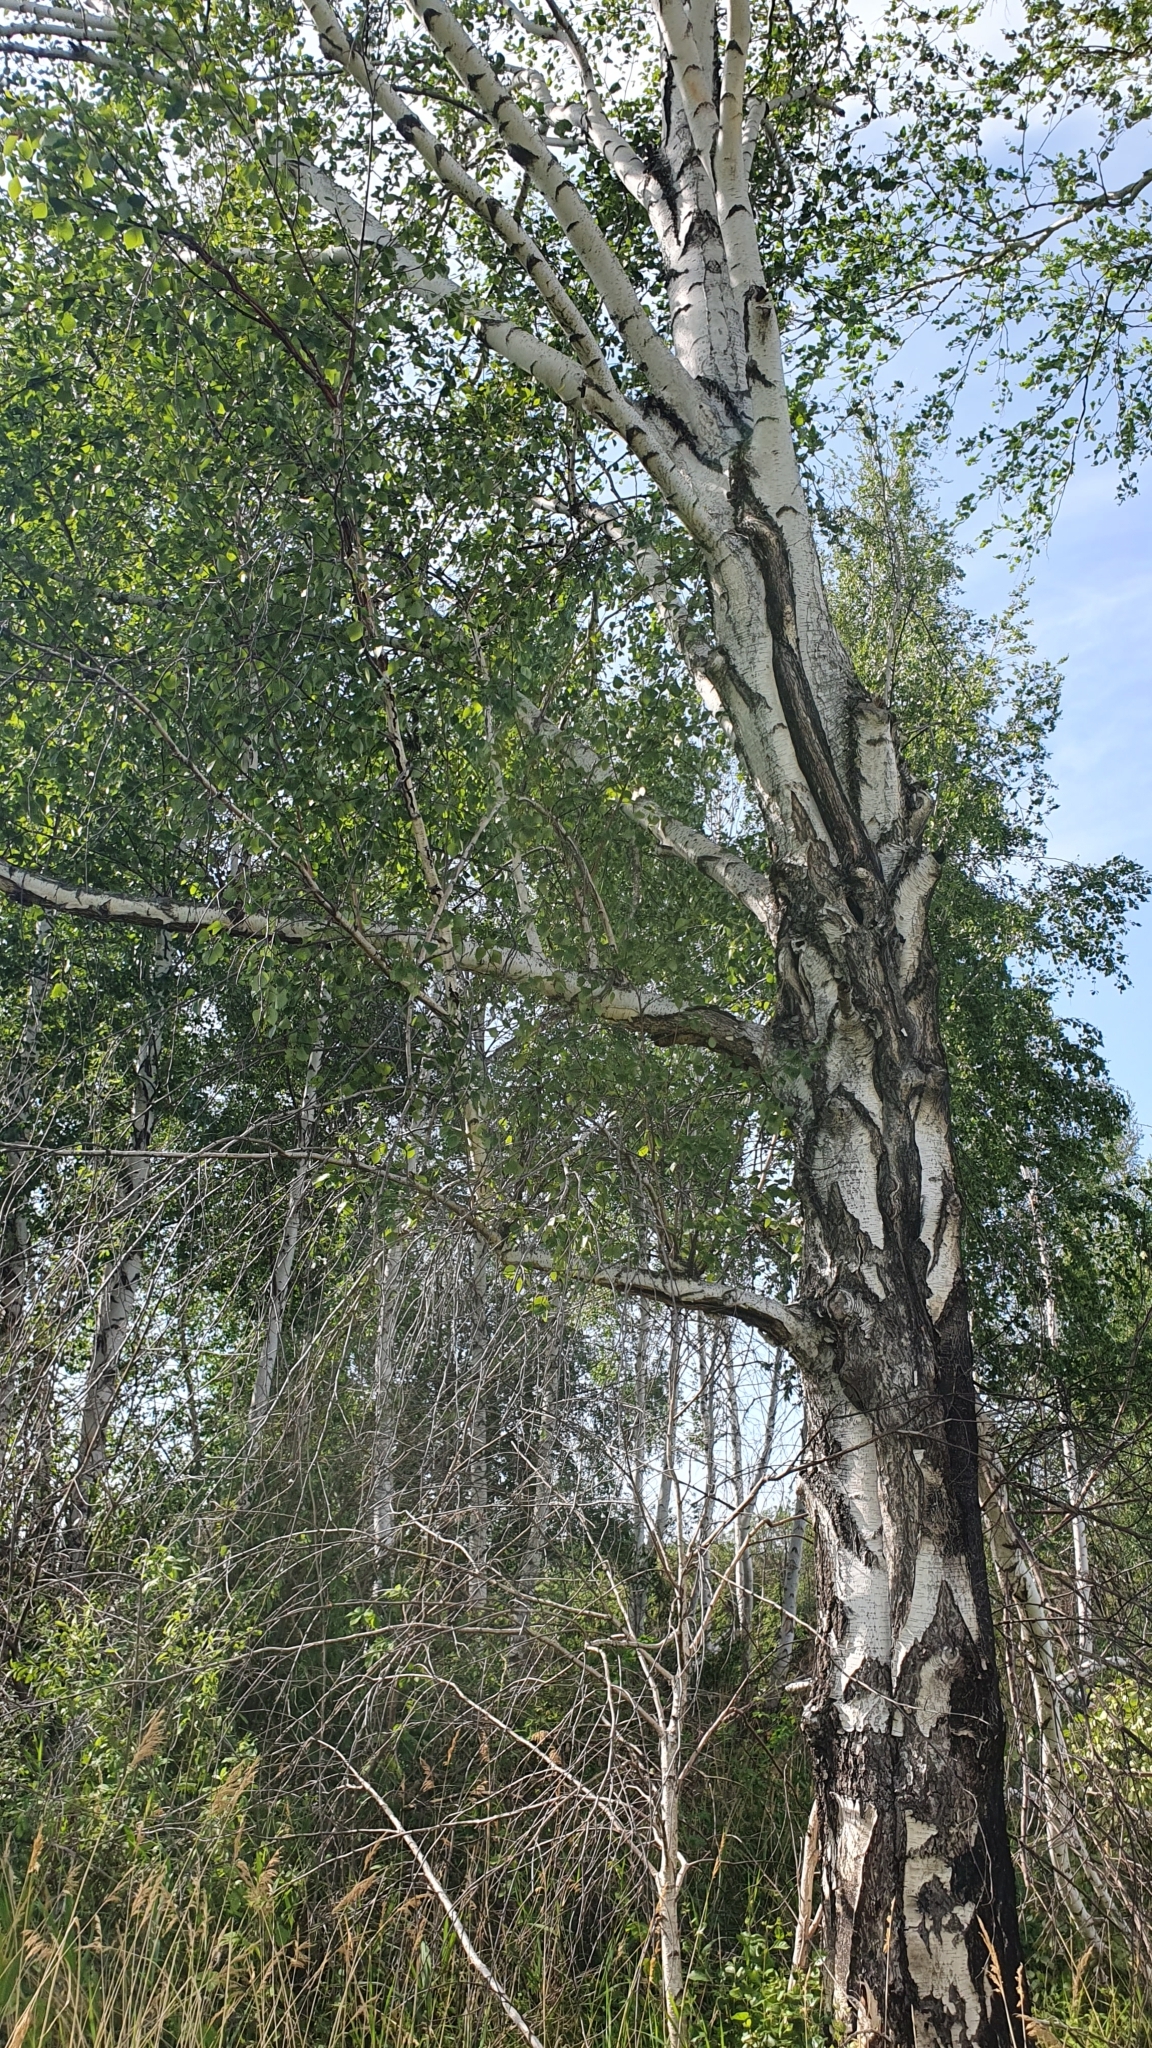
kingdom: Plantae
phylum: Tracheophyta
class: Magnoliopsida
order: Fagales
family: Betulaceae
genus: Betula
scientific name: Betula pendula
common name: Silver birch
